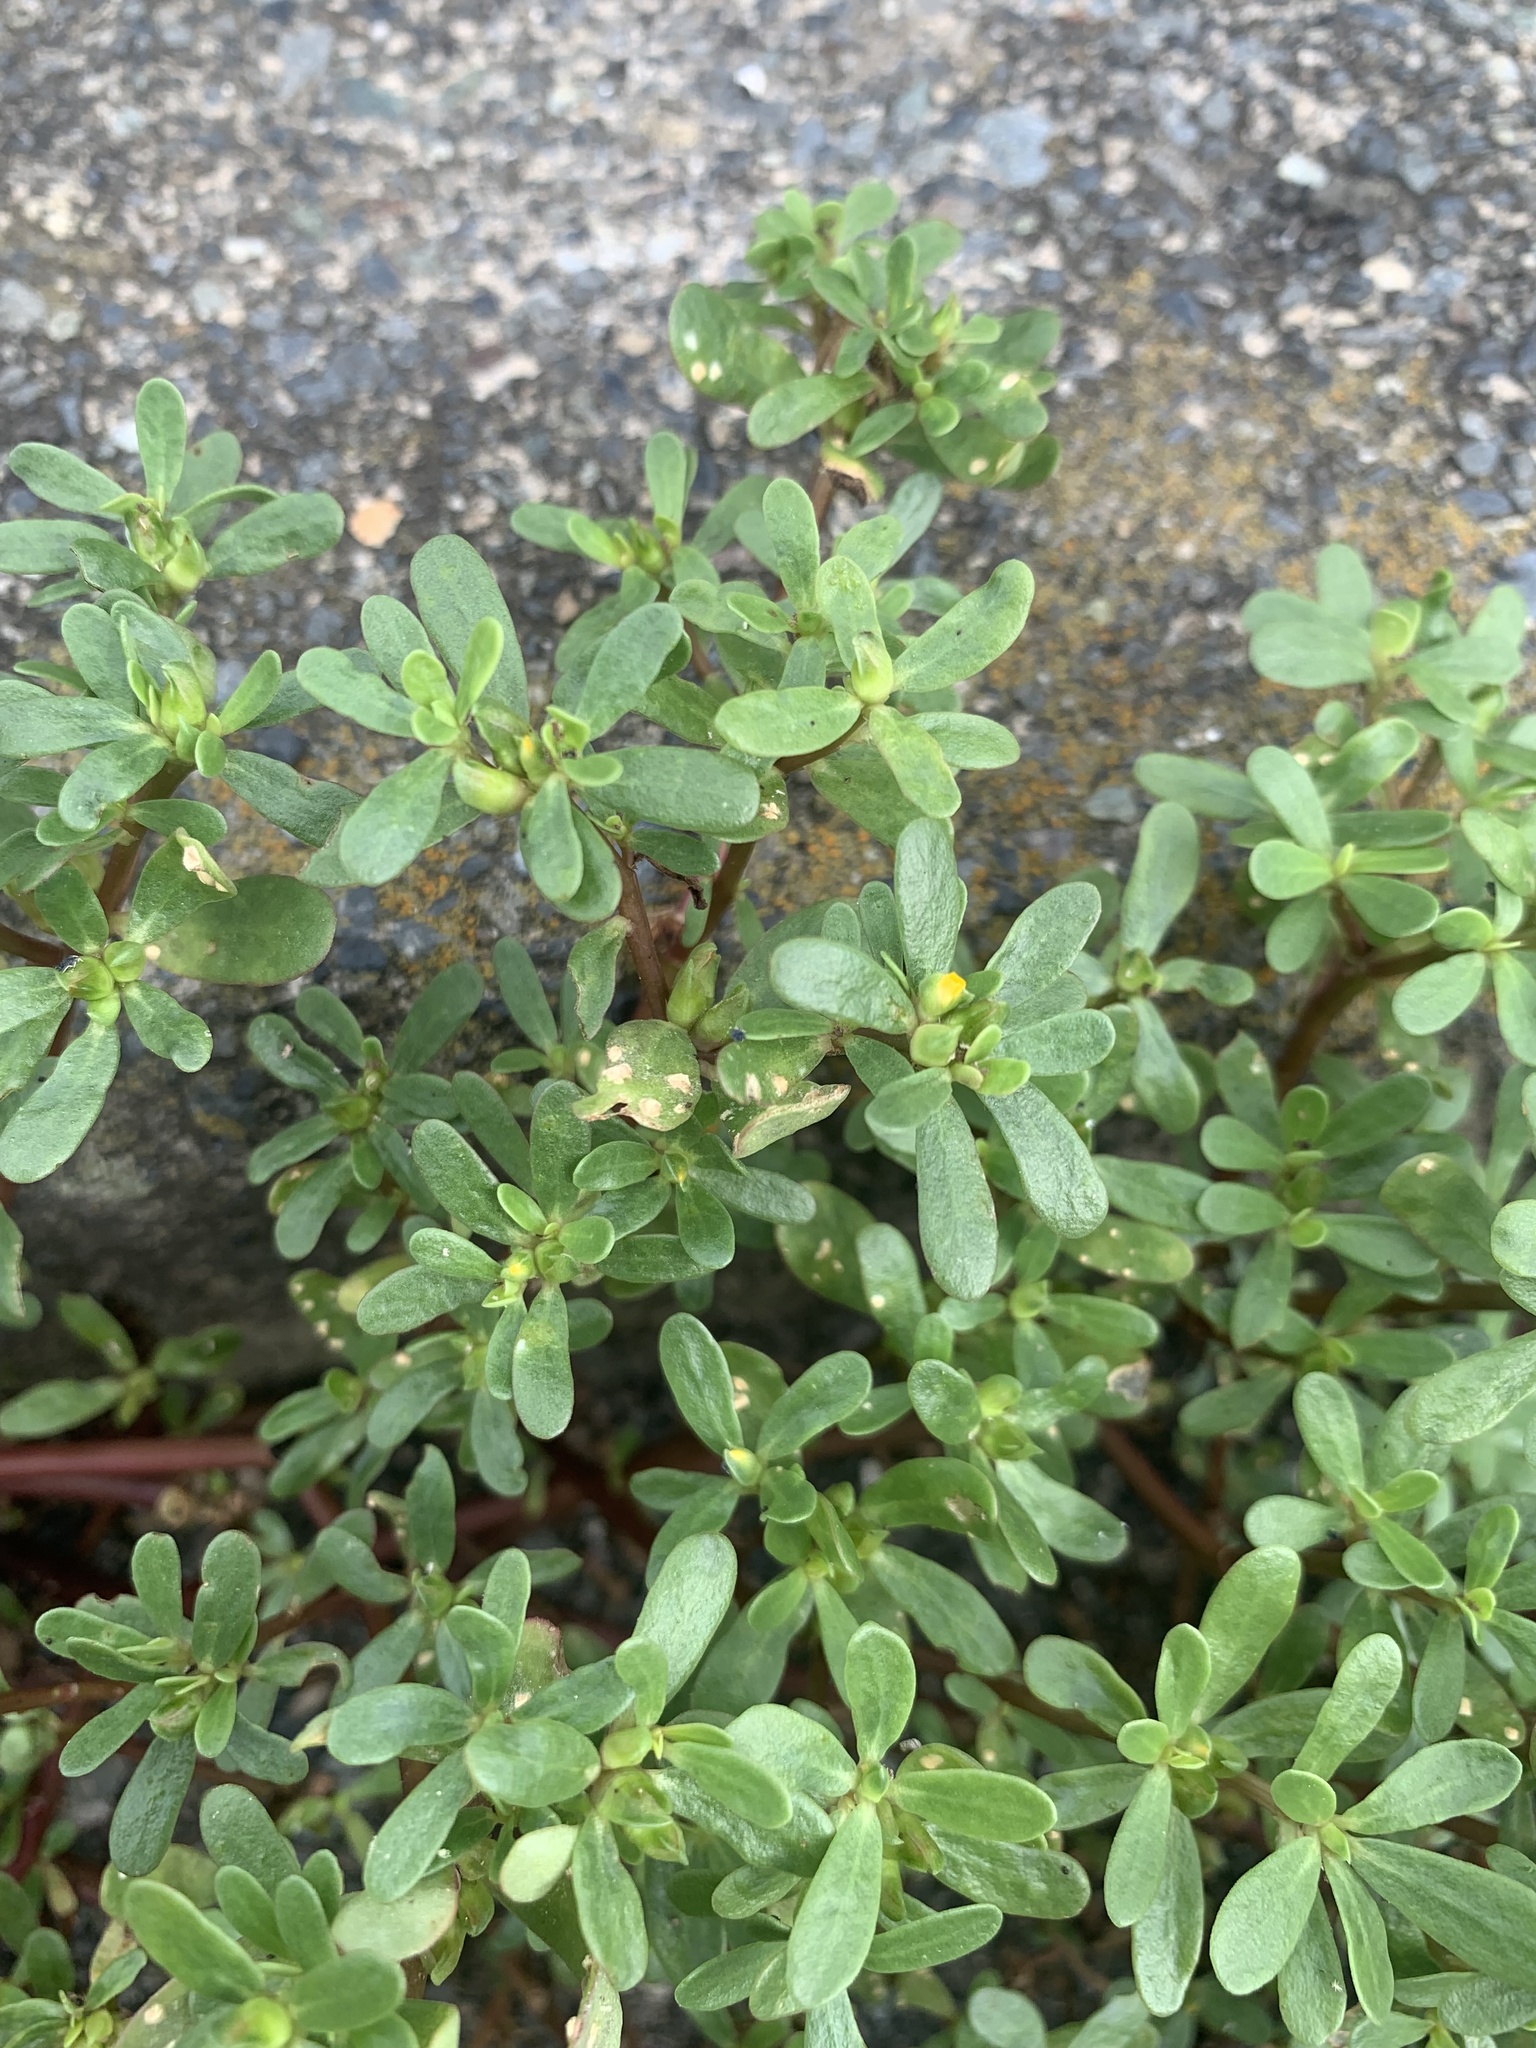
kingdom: Plantae
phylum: Tracheophyta
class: Magnoliopsida
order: Caryophyllales
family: Portulacaceae
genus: Portulaca
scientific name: Portulaca oleracea
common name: Common purslane
